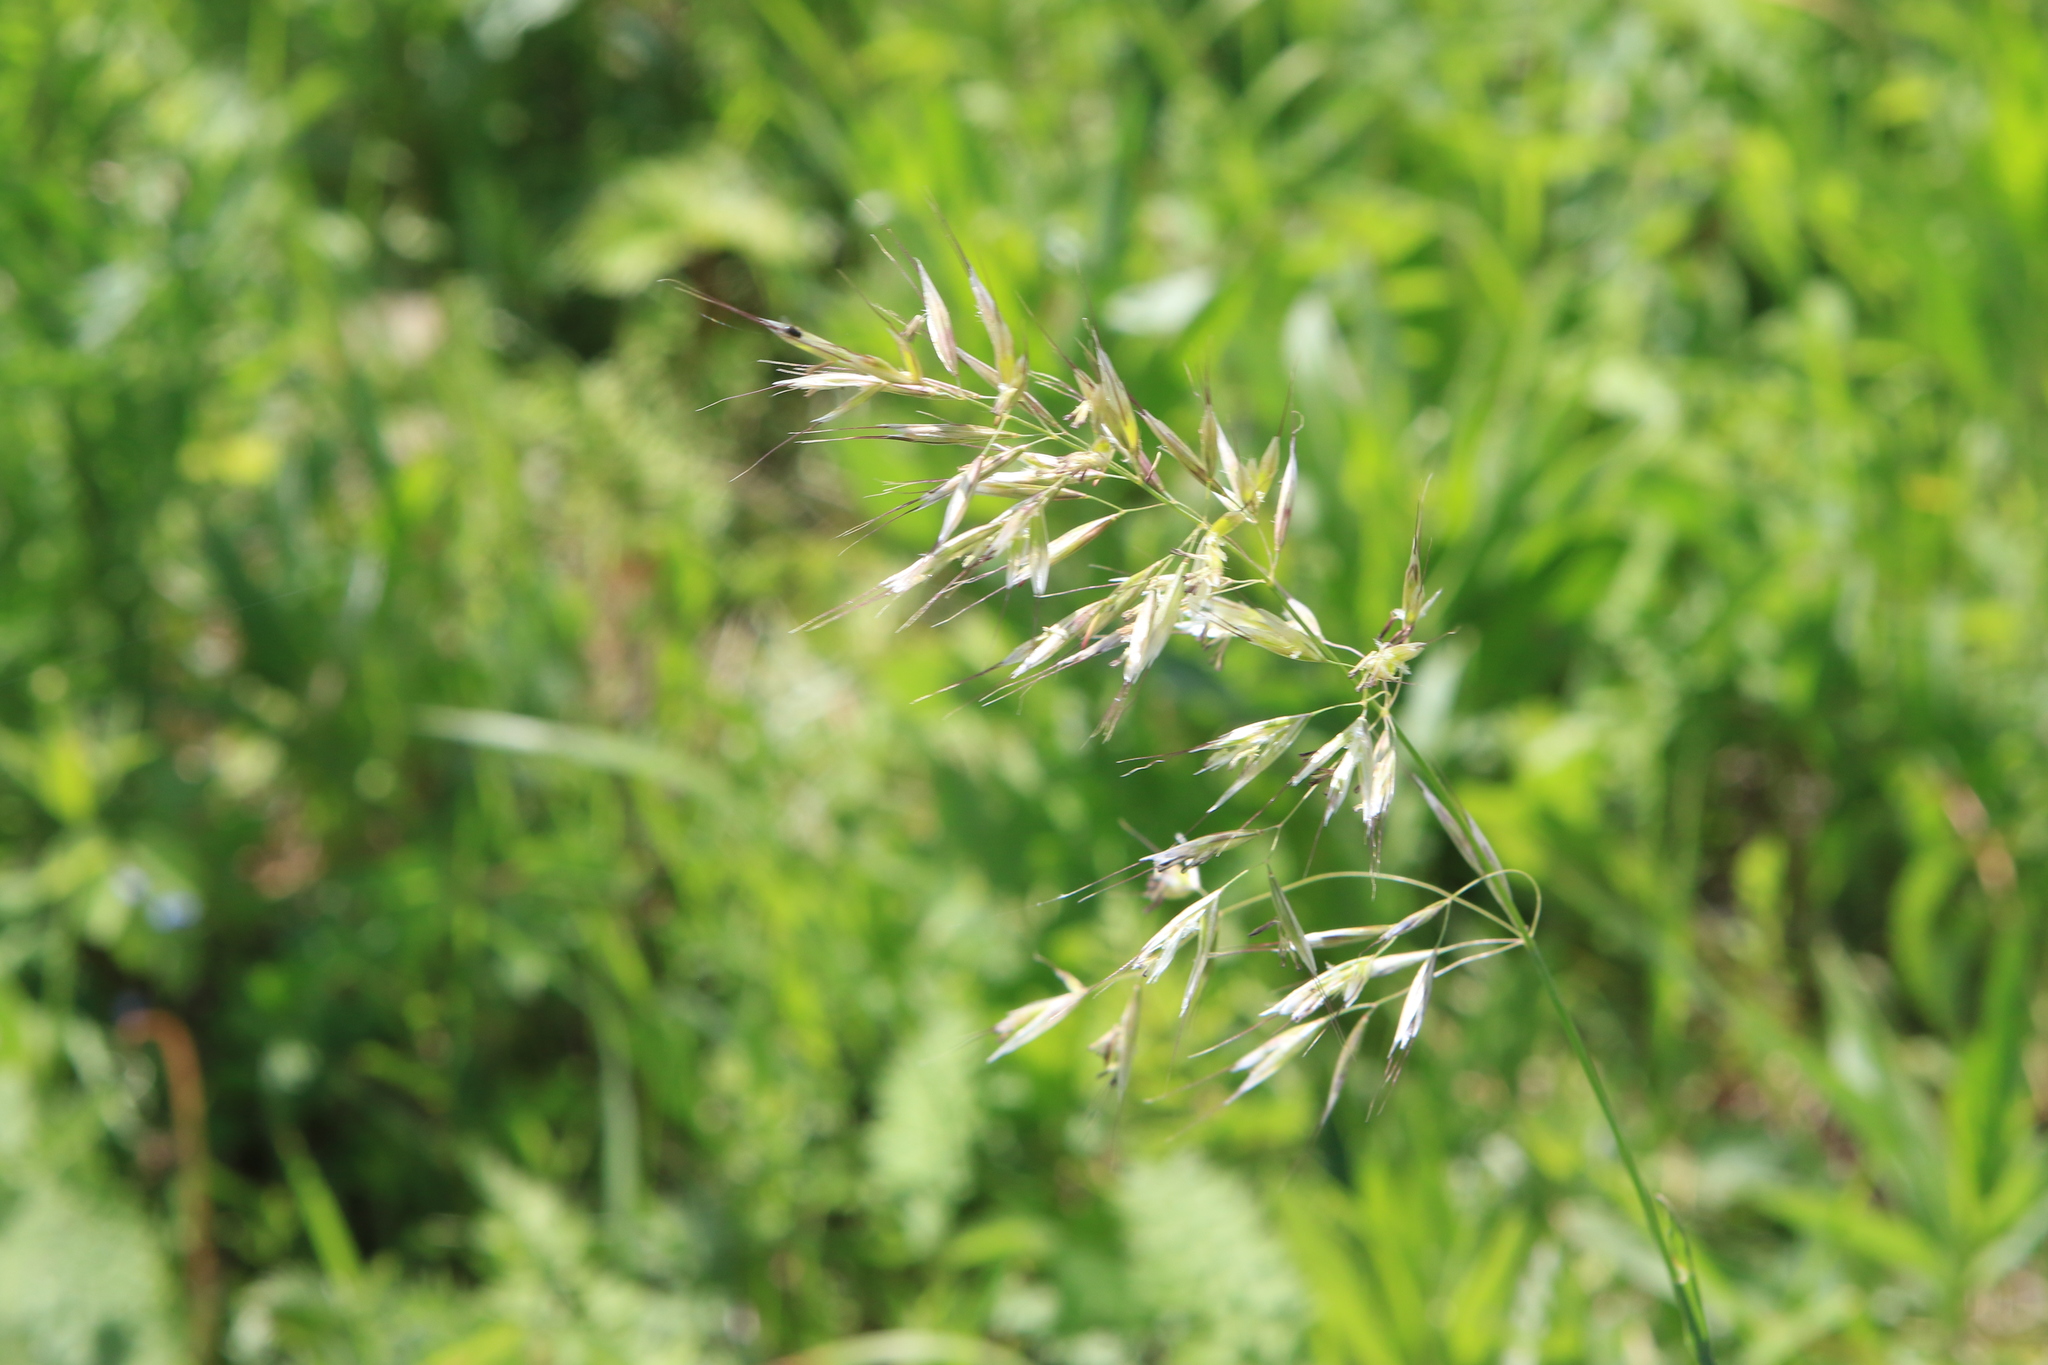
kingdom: Plantae
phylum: Tracheophyta
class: Liliopsida
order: Poales
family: Poaceae
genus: Avenula
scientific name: Avenula pubescens
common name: Downy alpine oatgrass
